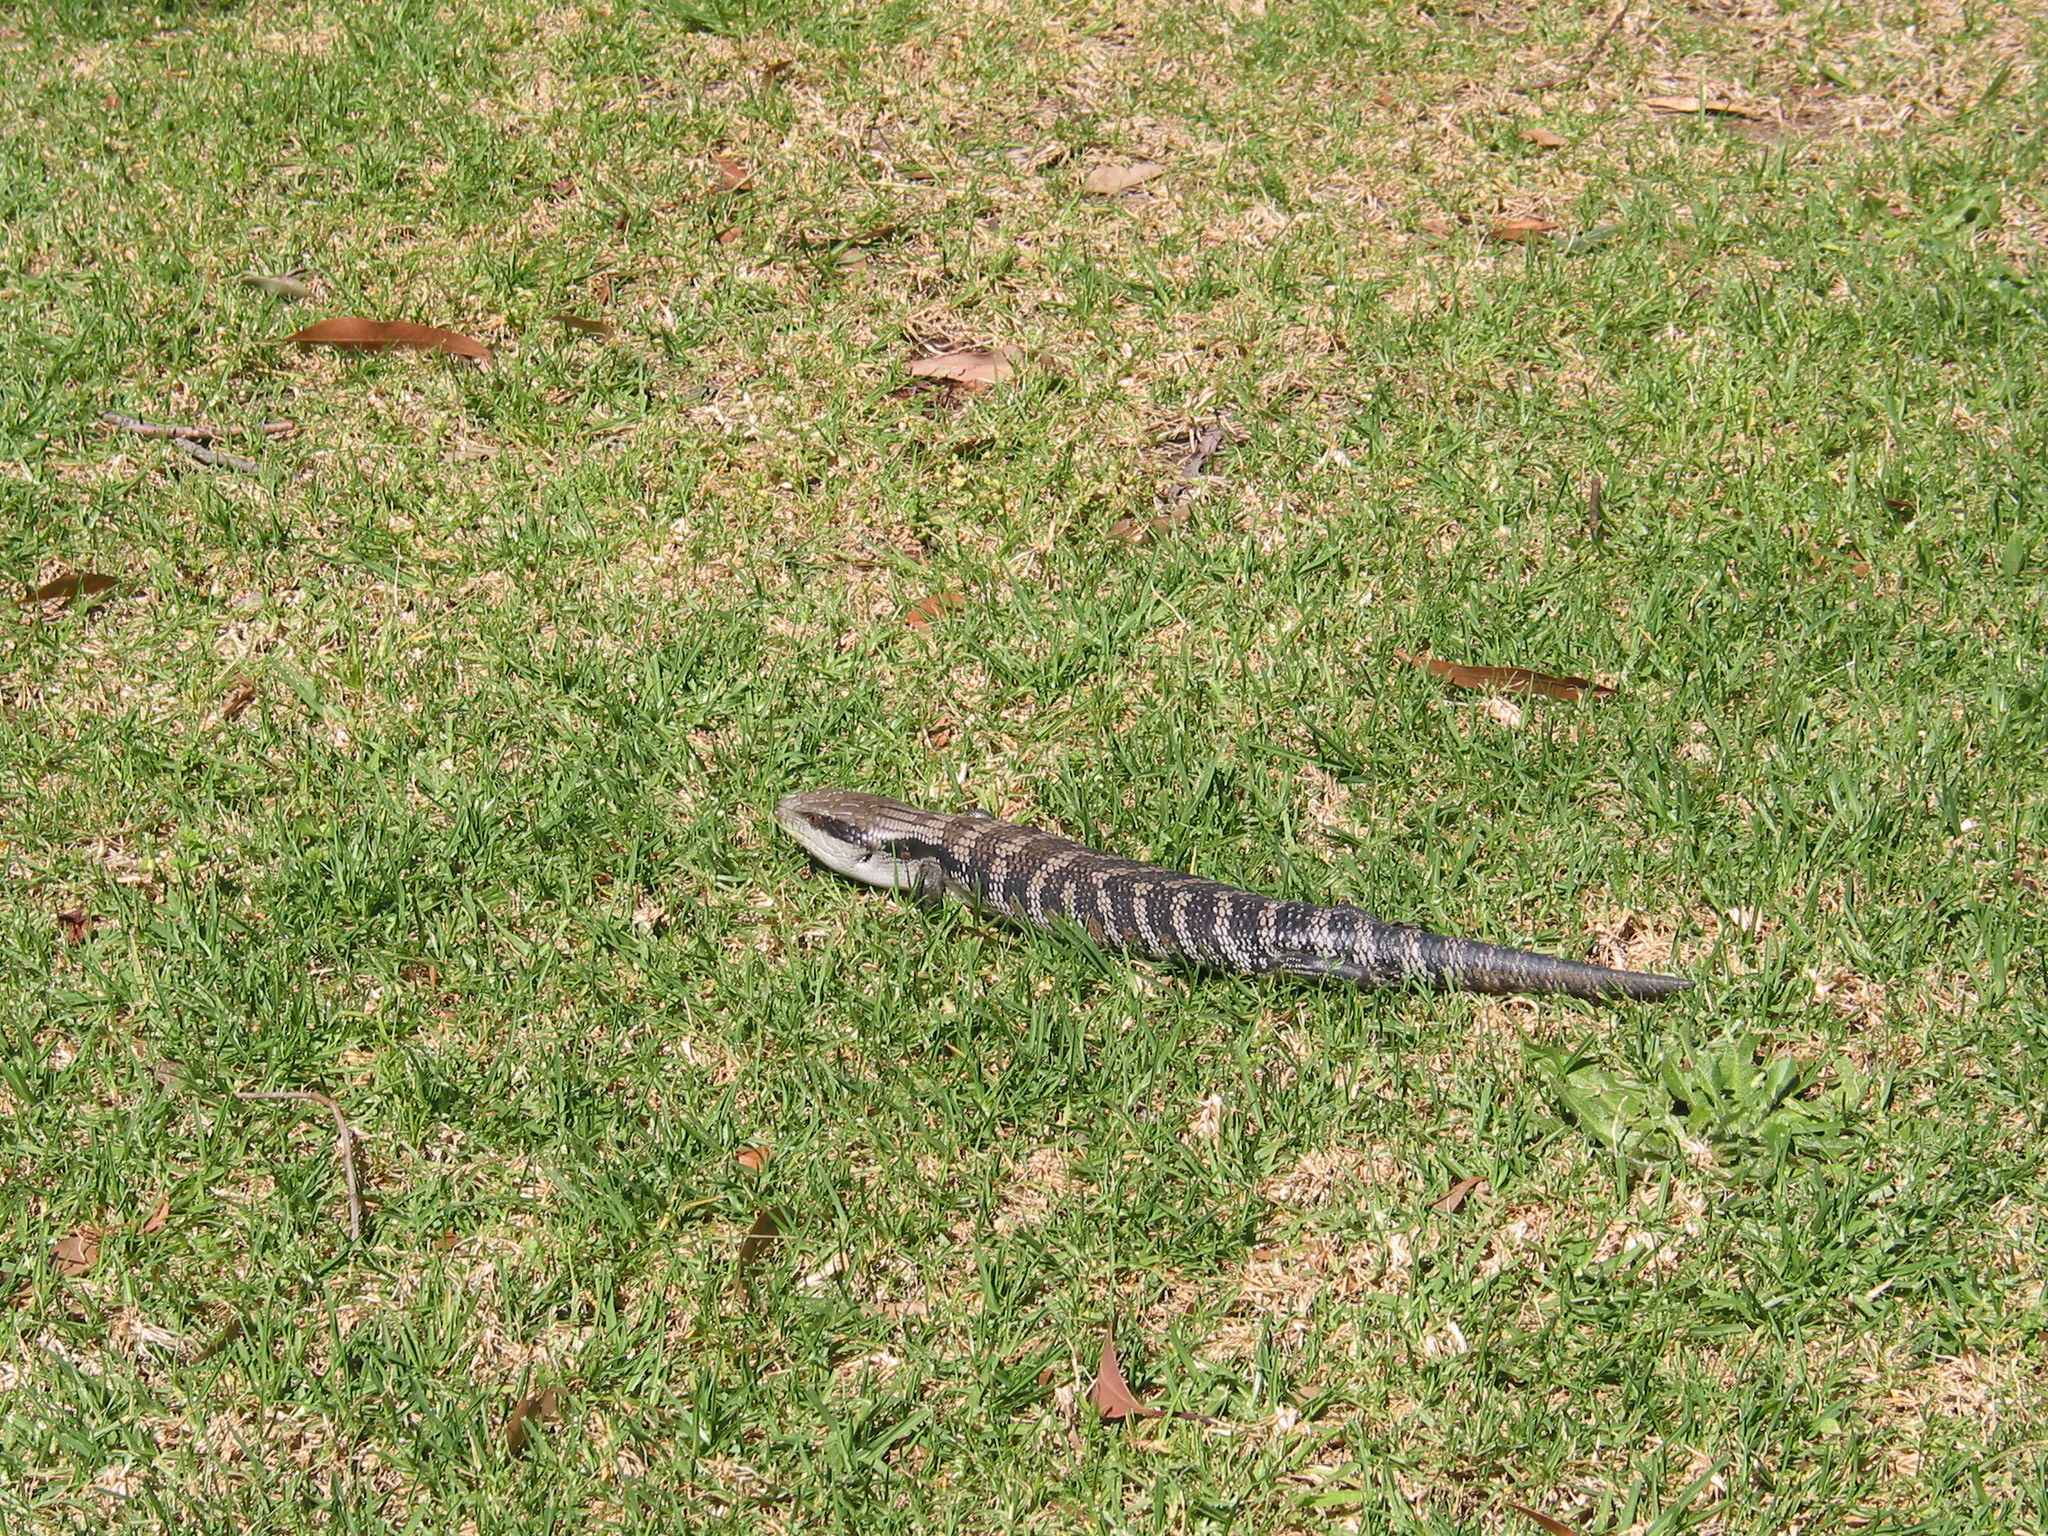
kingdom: Animalia
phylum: Chordata
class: Squamata
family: Scincidae
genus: Tiliqua
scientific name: Tiliqua scincoides
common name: Common bluetongue
